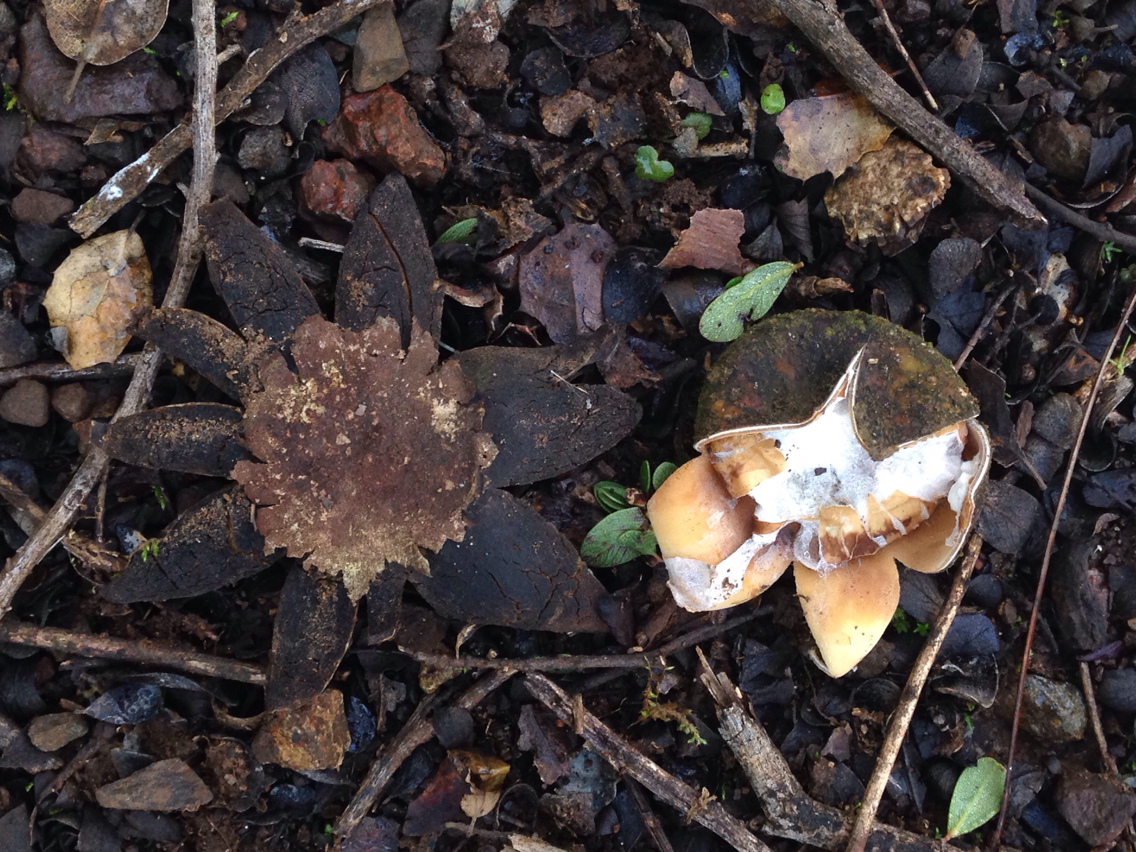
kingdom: Fungi
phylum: Basidiomycota
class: Agaricomycetes
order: Boletales
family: Diplocystidiaceae
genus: Astraeus
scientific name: Astraeus hygrometricus
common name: Barometer earthstar
